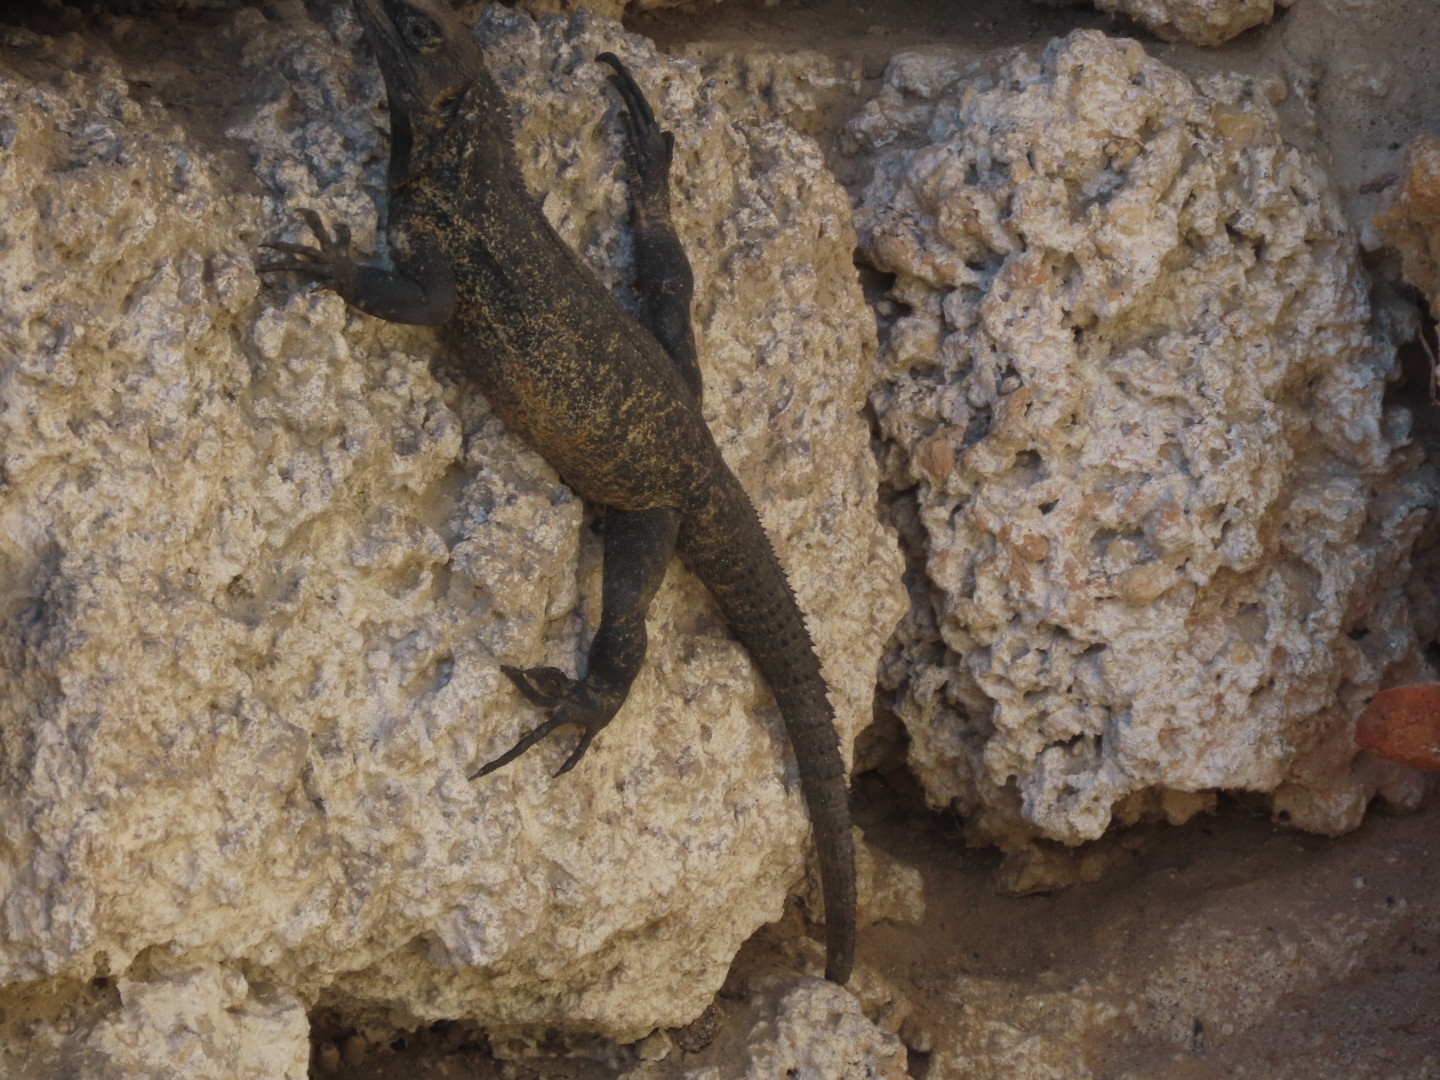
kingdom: Animalia
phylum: Chordata
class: Squamata
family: Iguanidae
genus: Ctenosaura
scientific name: Ctenosaura pectinata
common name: Guerreran spiny-tailed iguana
